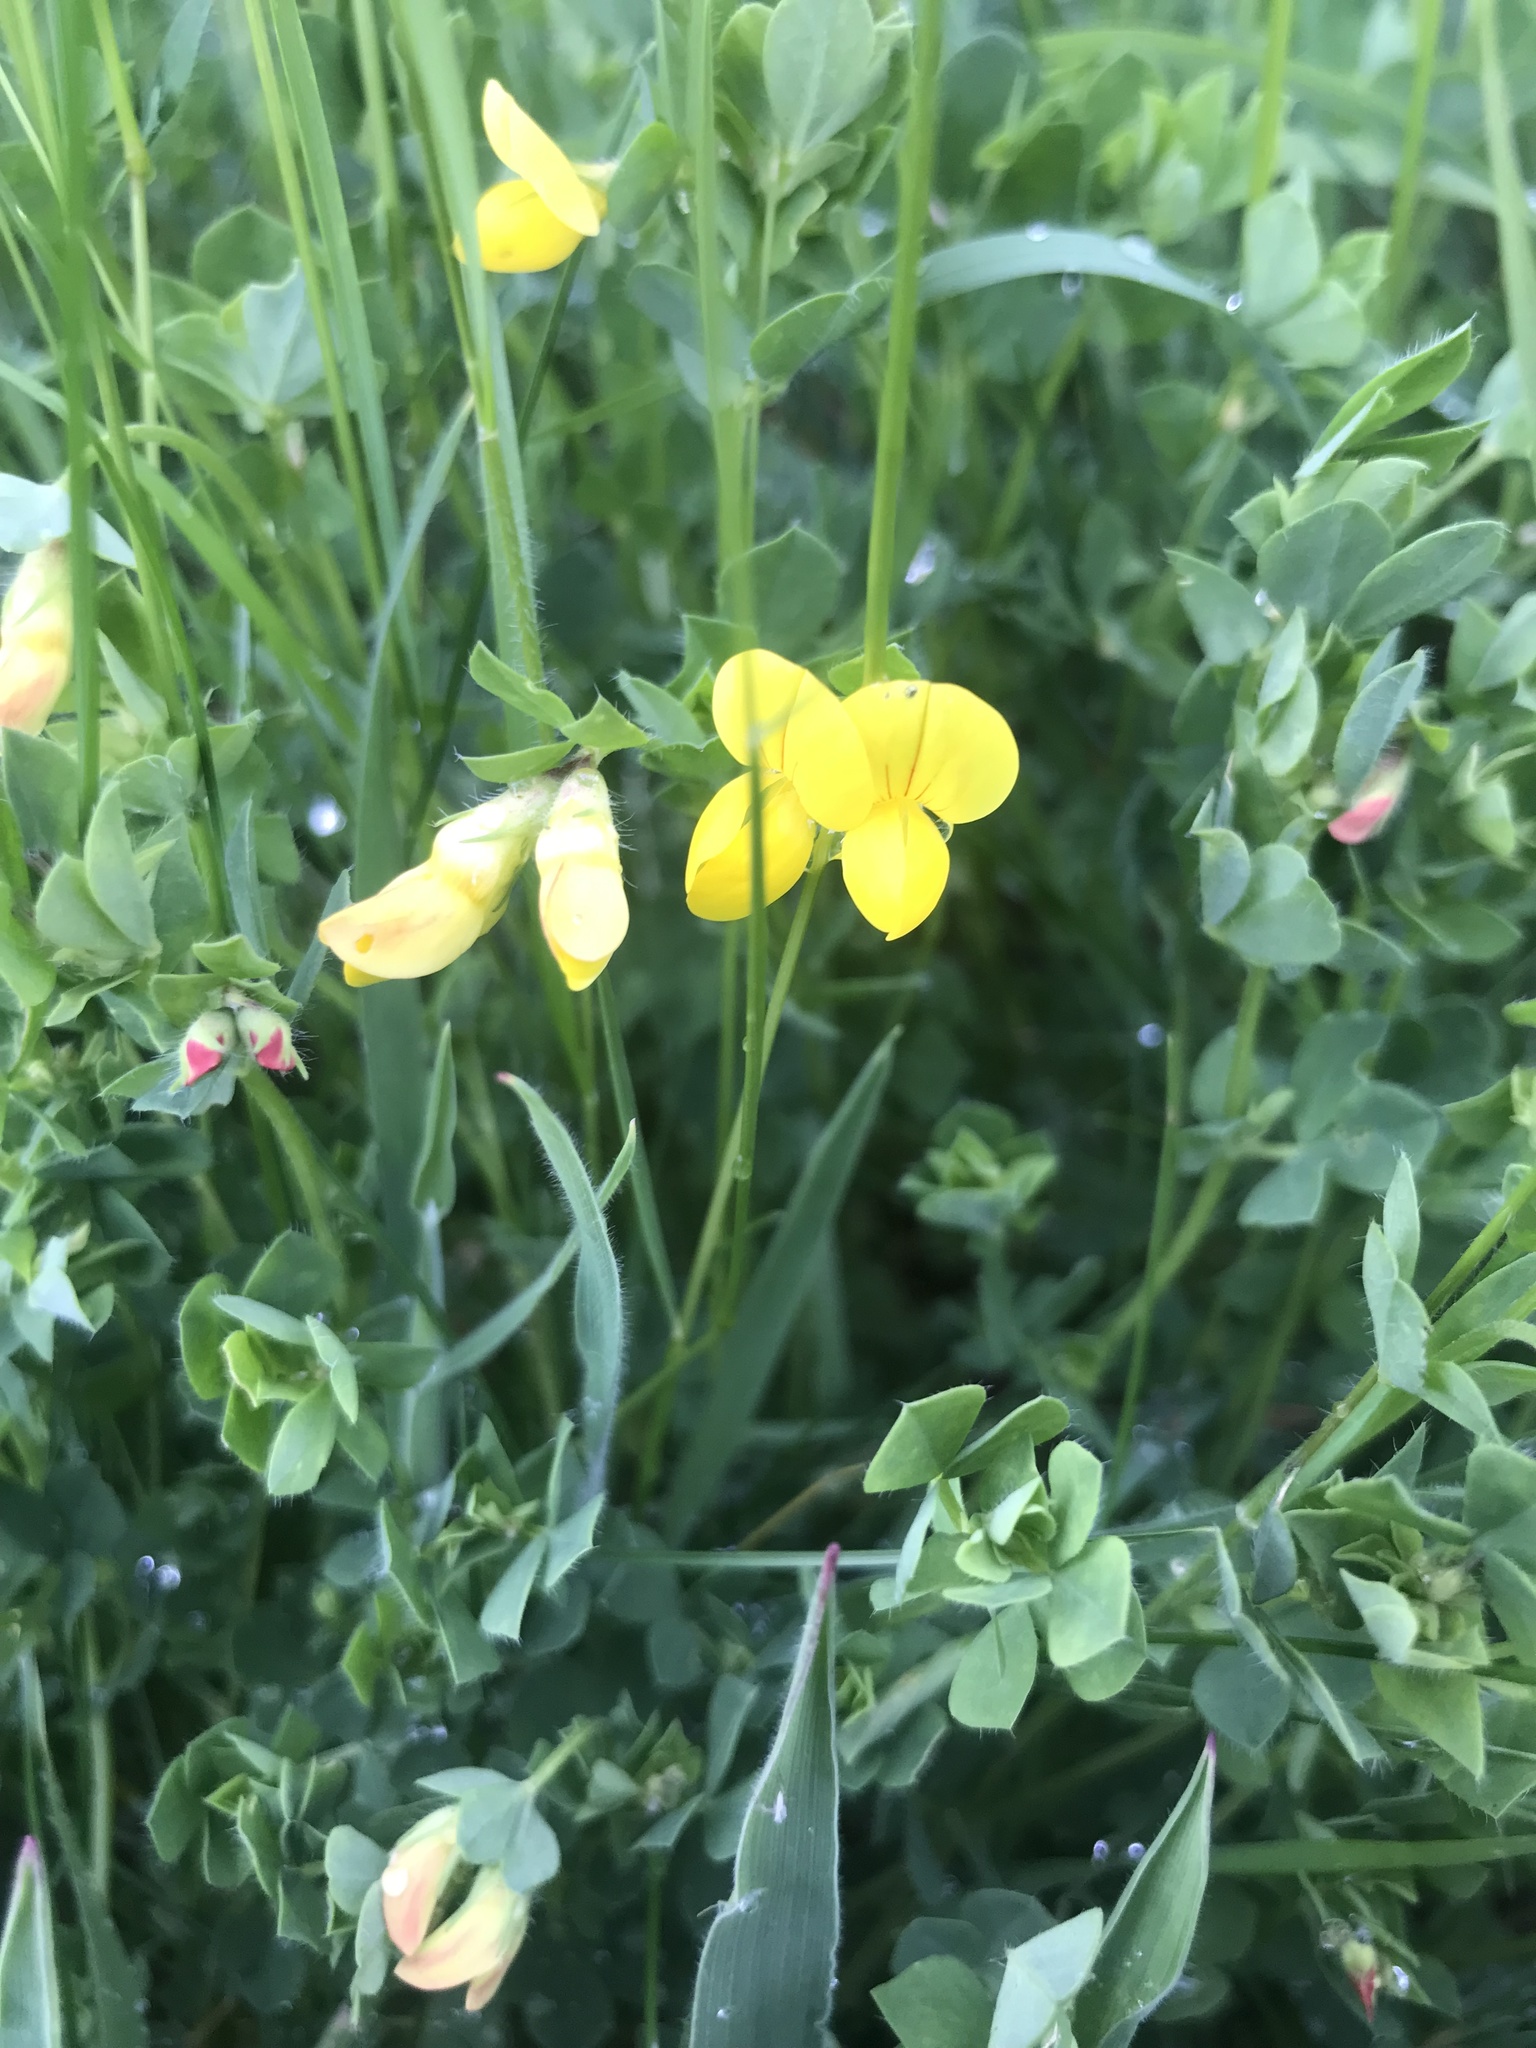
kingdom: Plantae
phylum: Tracheophyta
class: Magnoliopsida
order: Fabales
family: Fabaceae
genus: Lotus
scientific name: Lotus corniculatus
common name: Common bird's-foot-trefoil
